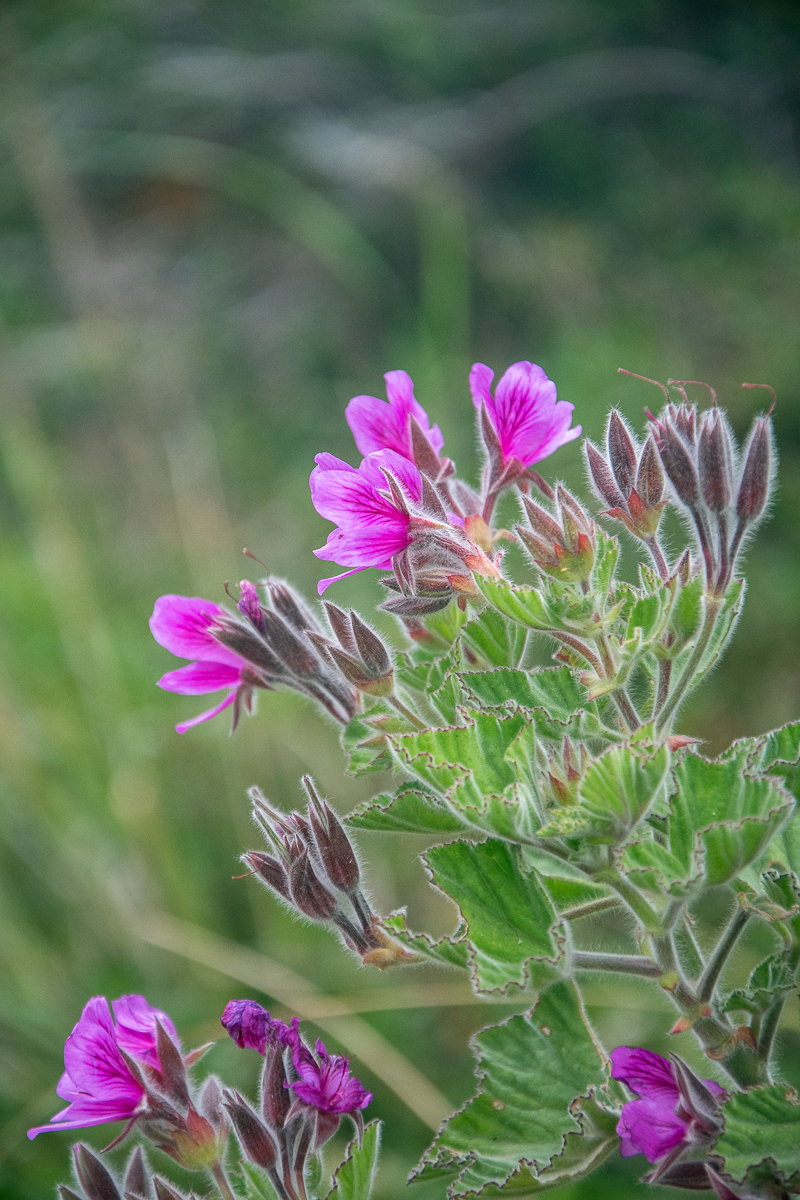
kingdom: Plantae
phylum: Tracheophyta
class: Magnoliopsida
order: Geraniales
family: Geraniaceae
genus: Pelargonium
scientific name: Pelargonium cucullatum
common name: Tree pelargonium
